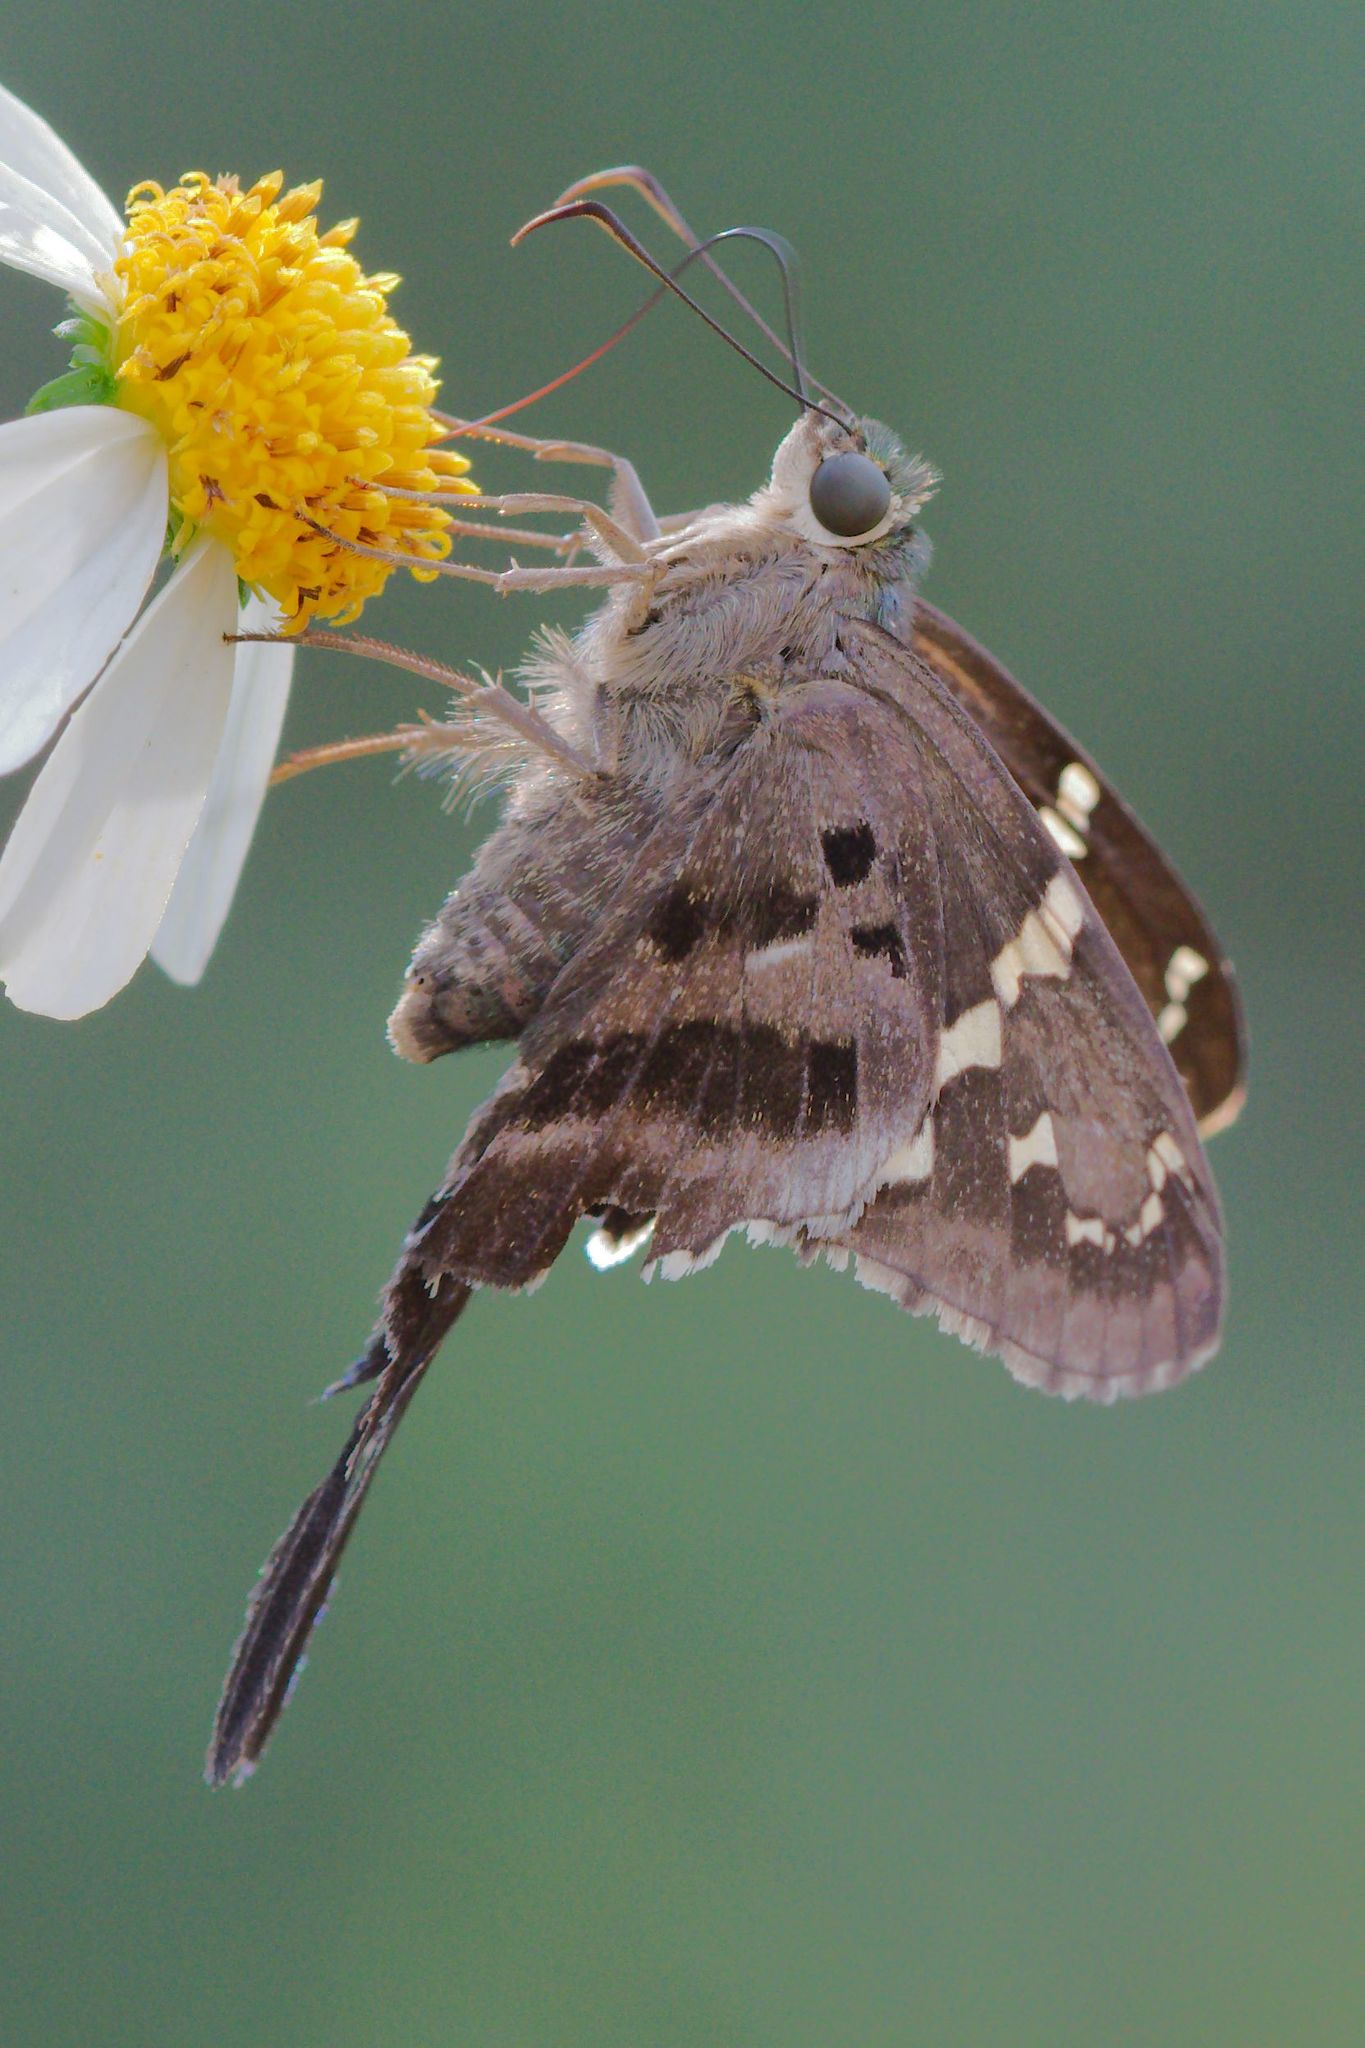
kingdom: Animalia
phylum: Arthropoda
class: Insecta
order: Lepidoptera
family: Hesperiidae
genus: Urbanus
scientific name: Urbanus proteus
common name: Long-tailed skipper
